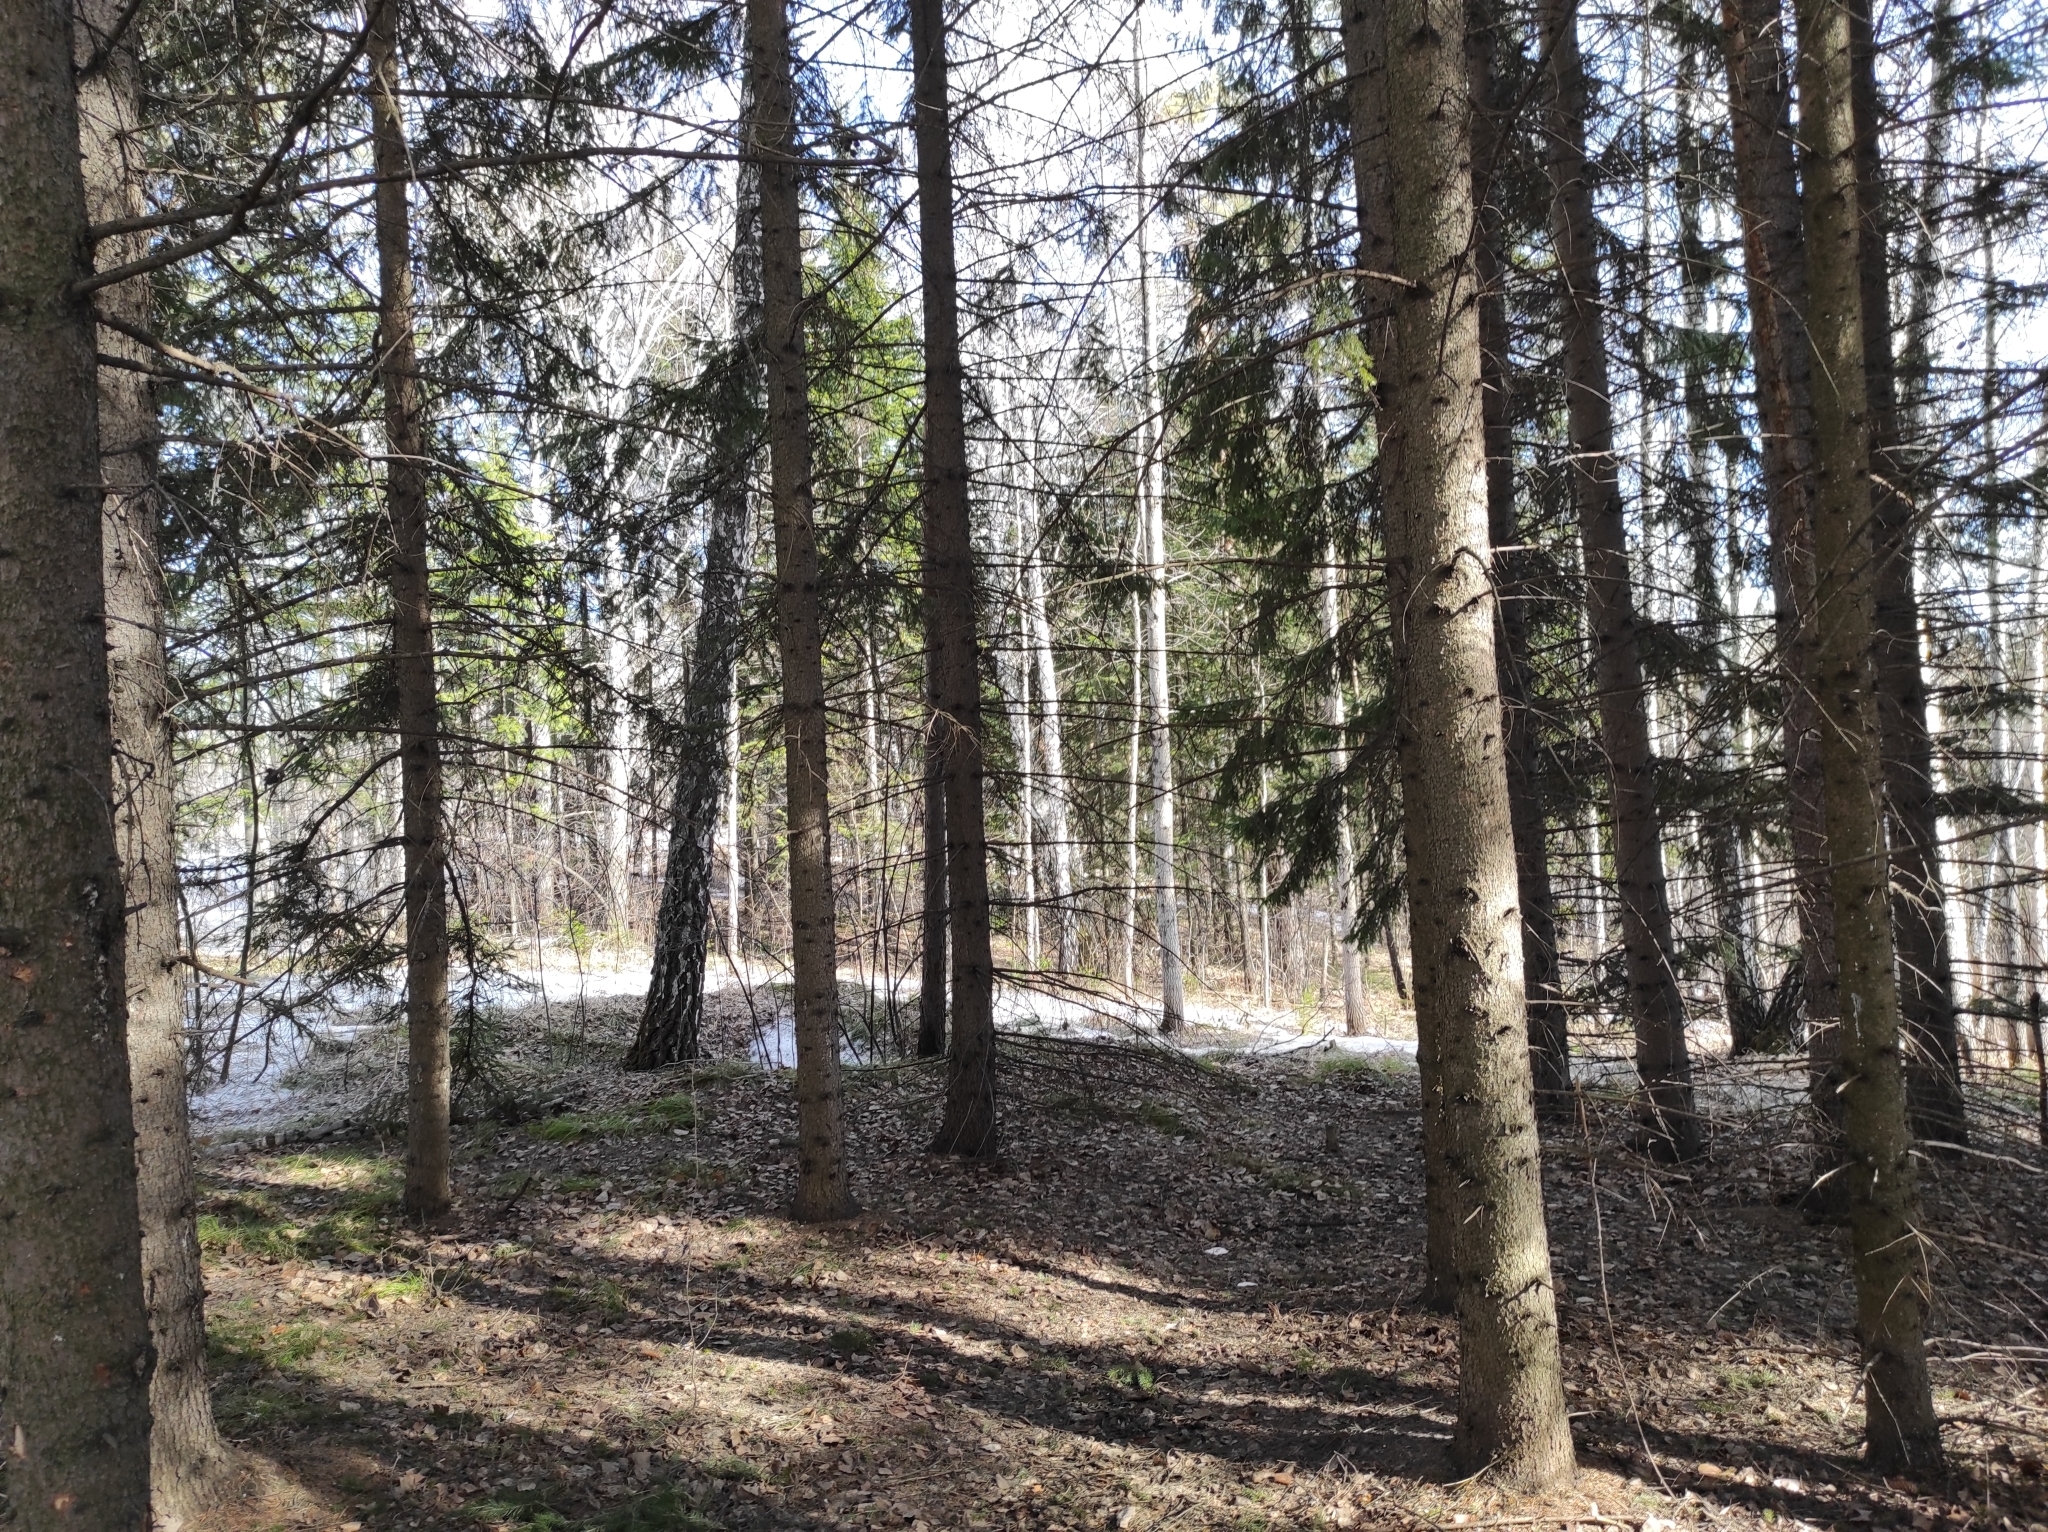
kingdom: Animalia
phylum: Chordata
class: Aves
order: Passeriformes
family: Paridae
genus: Parus
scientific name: Parus major
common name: Great tit
